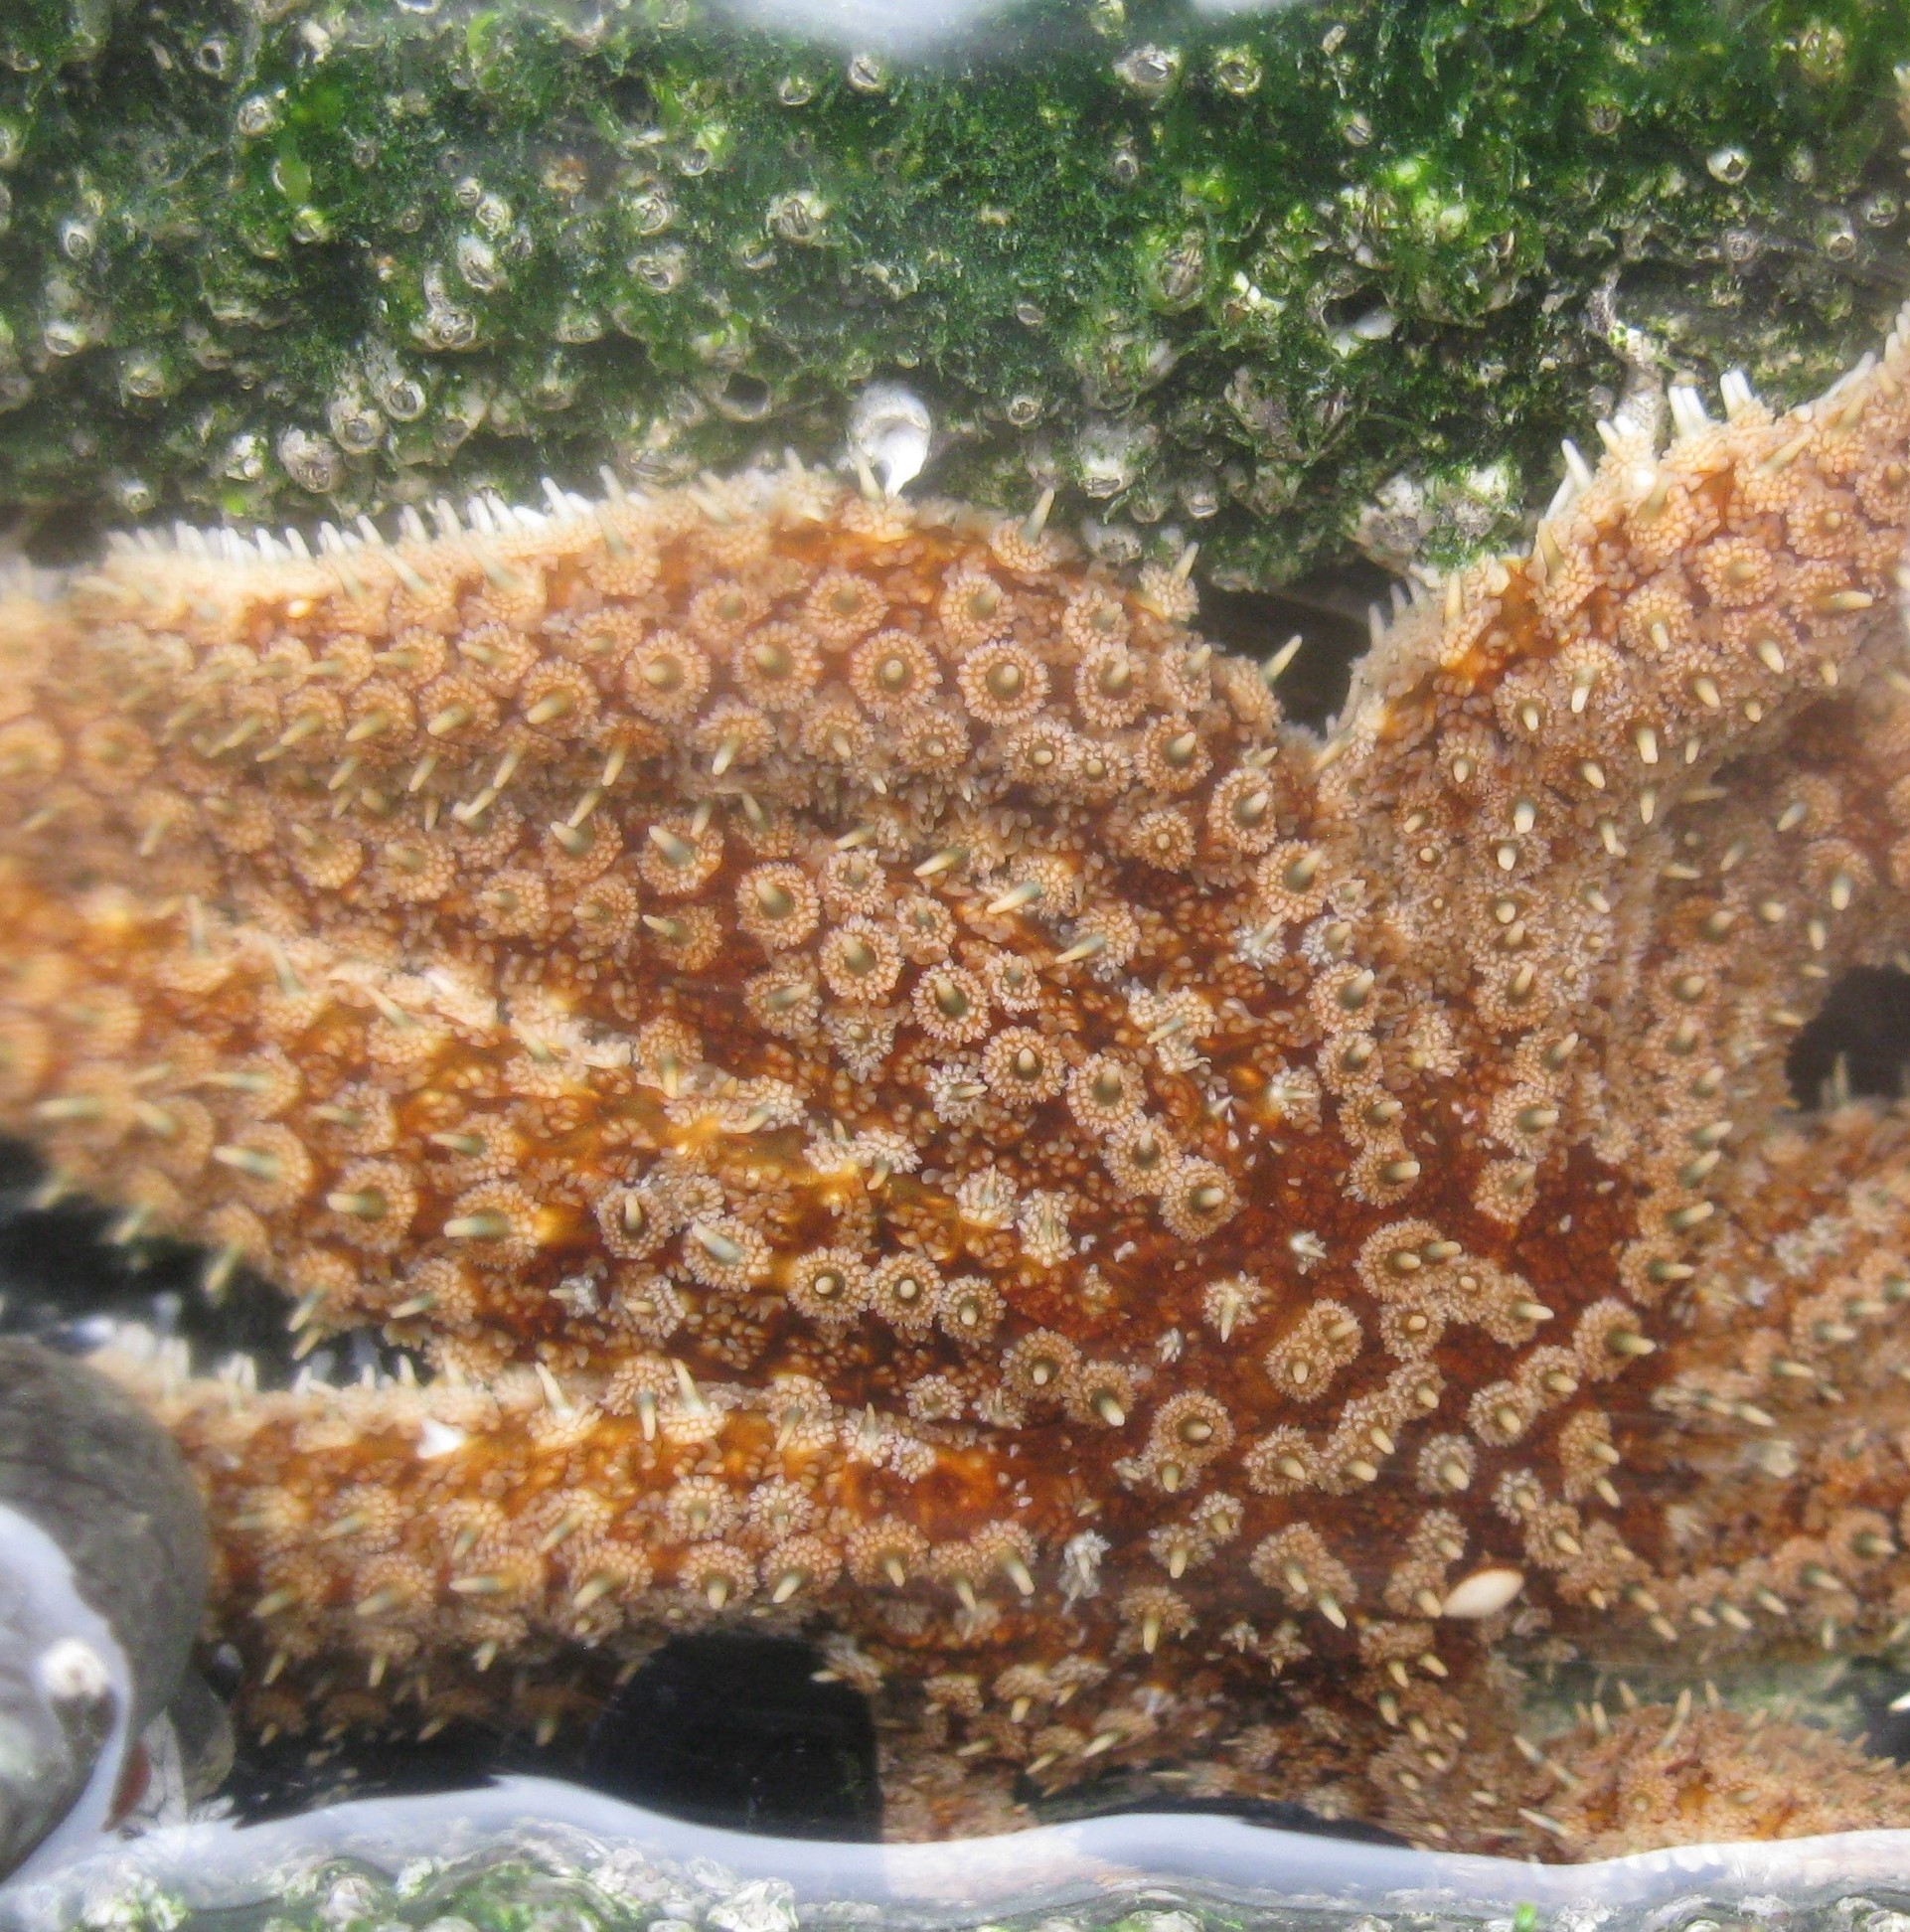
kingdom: Animalia
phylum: Echinodermata
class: Asteroidea
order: Forcipulatida
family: Asteriidae
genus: Coscinasterias
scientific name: Coscinasterias muricata
